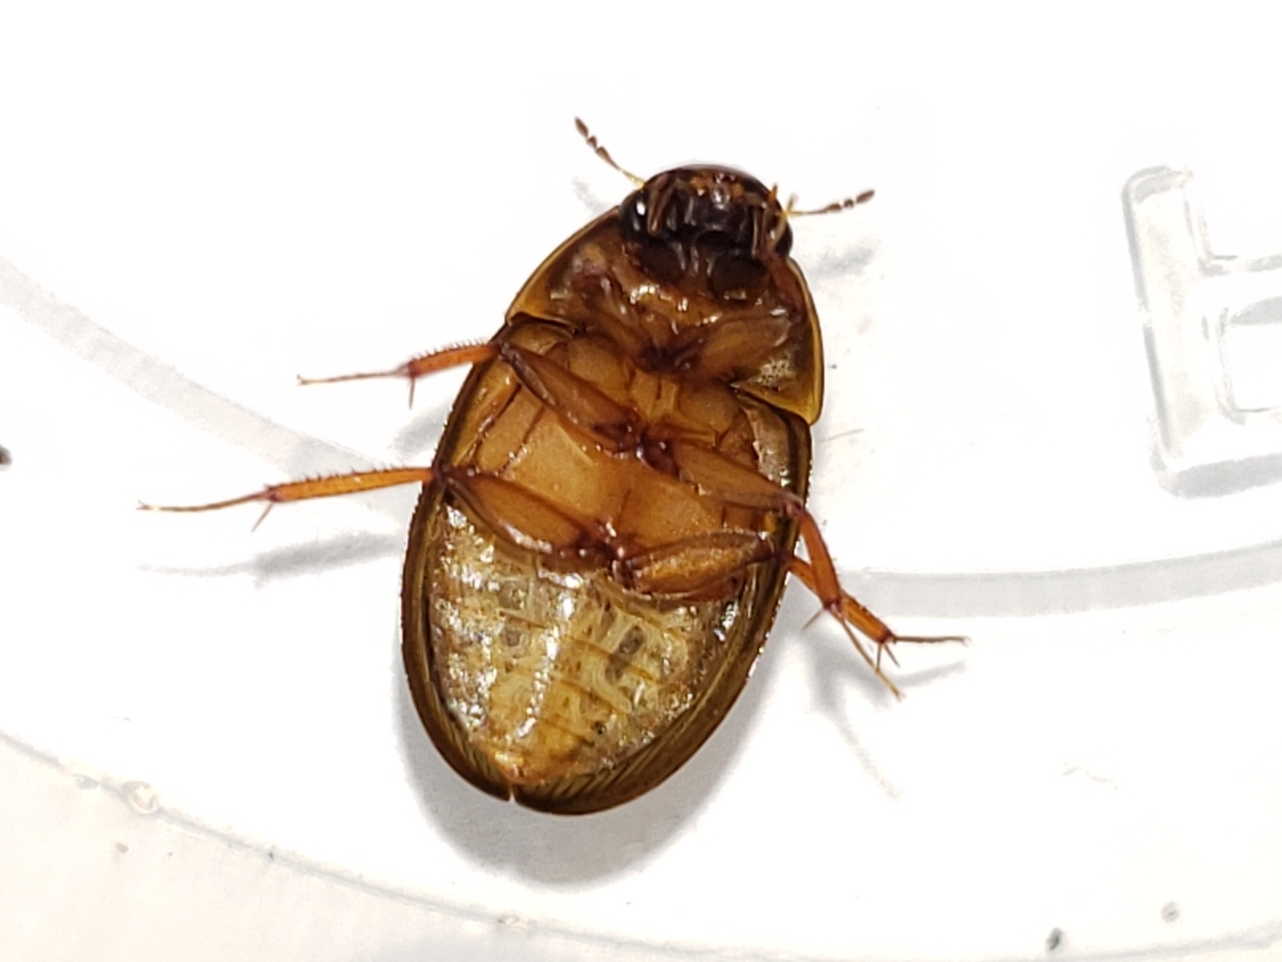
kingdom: Animalia
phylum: Arthropoda
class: Insecta
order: Coleoptera
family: Hydrophilidae
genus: Enochrus
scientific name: Enochrus
